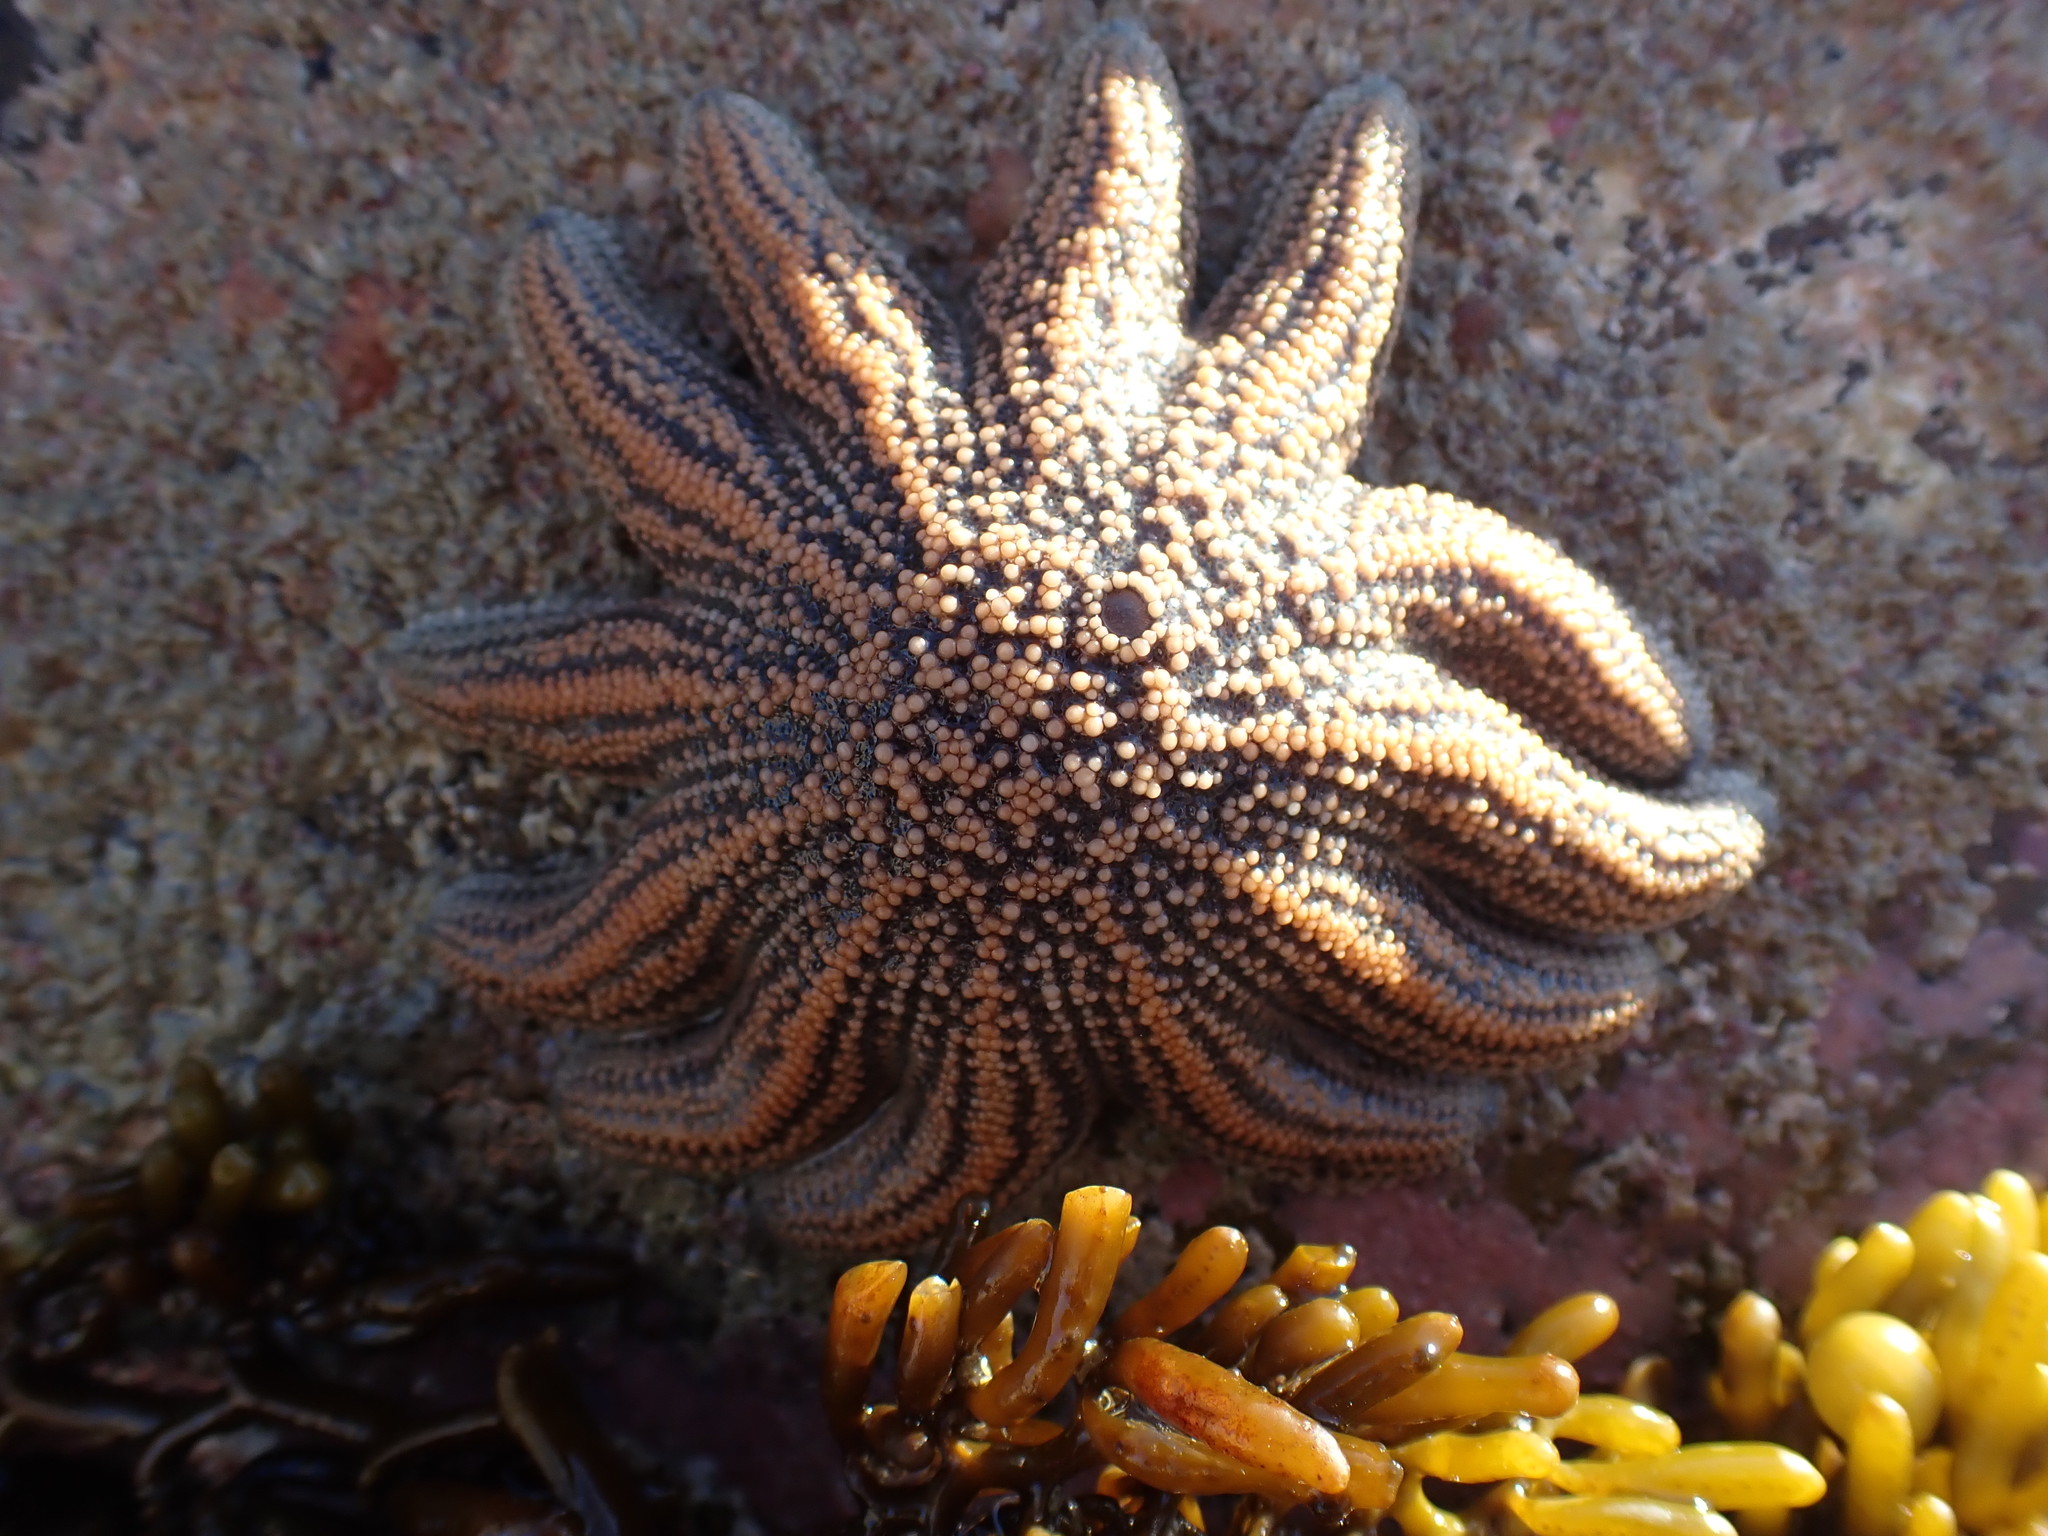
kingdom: Animalia
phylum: Echinodermata
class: Asteroidea
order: Forcipulatida
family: Stichasteridae
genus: Stichaster
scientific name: Stichaster australis
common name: Reef starfish
